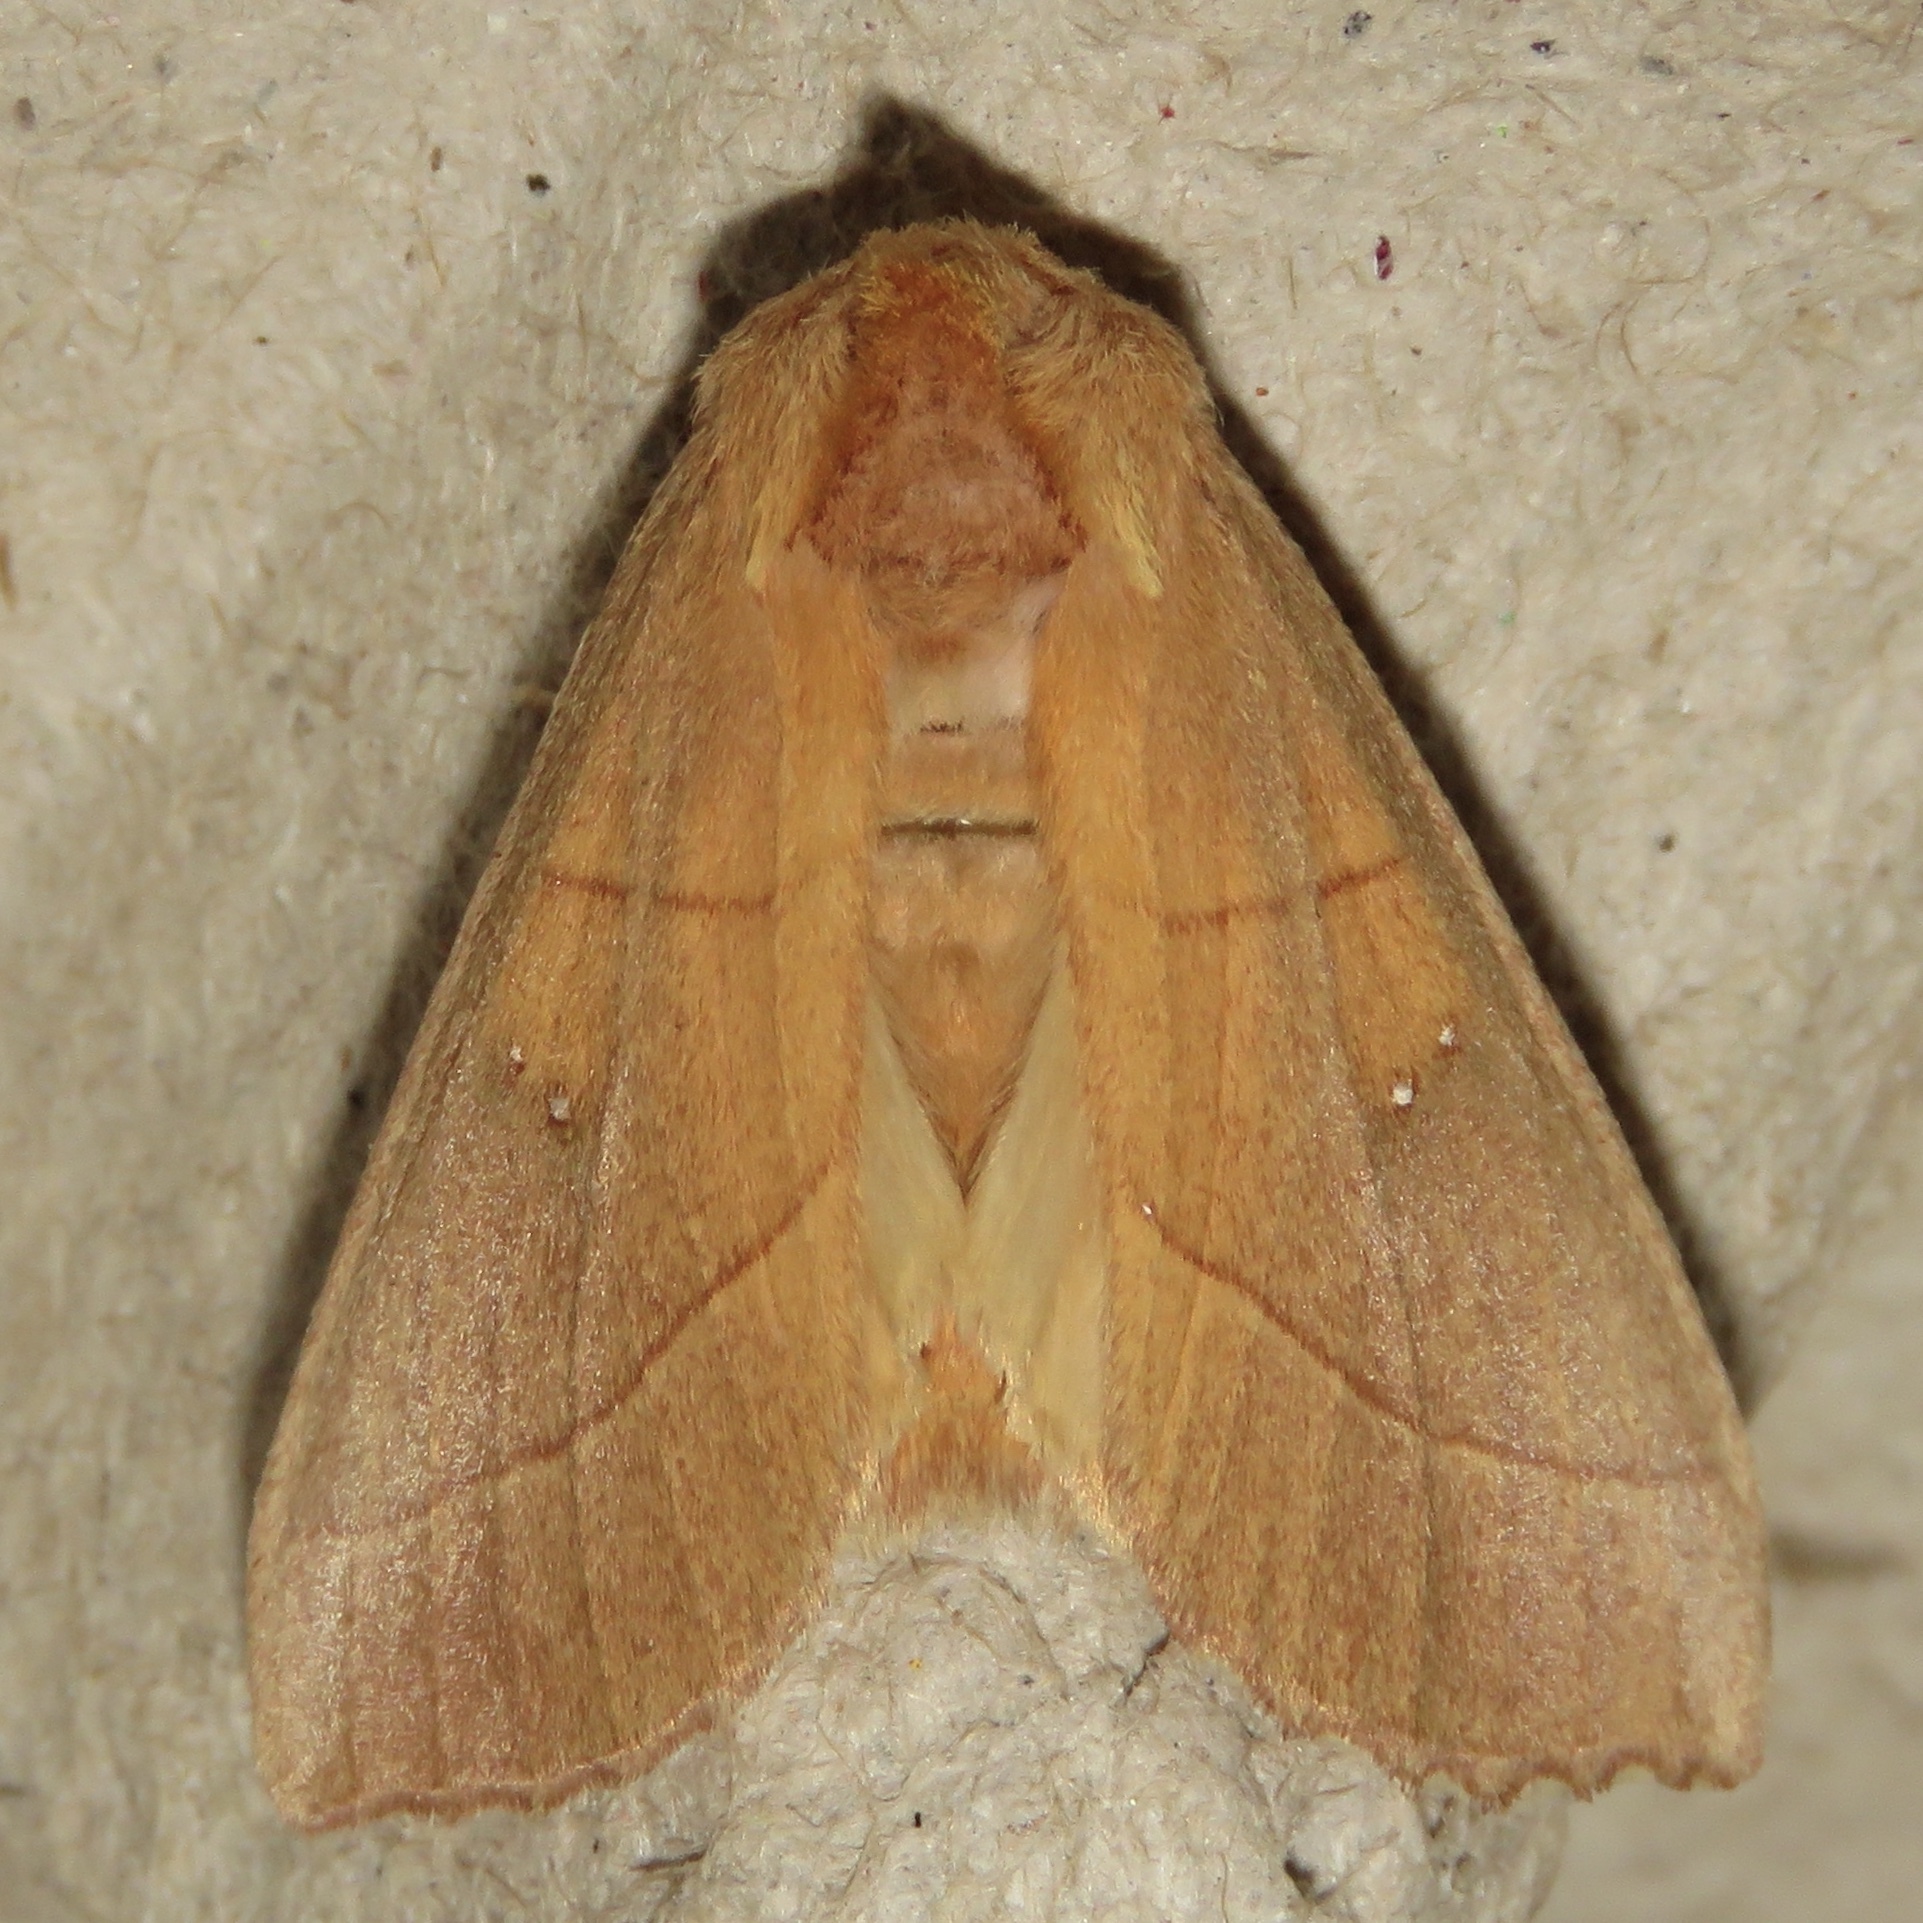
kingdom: Animalia
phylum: Arthropoda
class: Insecta
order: Lepidoptera
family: Notodontidae
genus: Nadata
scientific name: Nadata gibbosa
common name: White-dotted prominent
